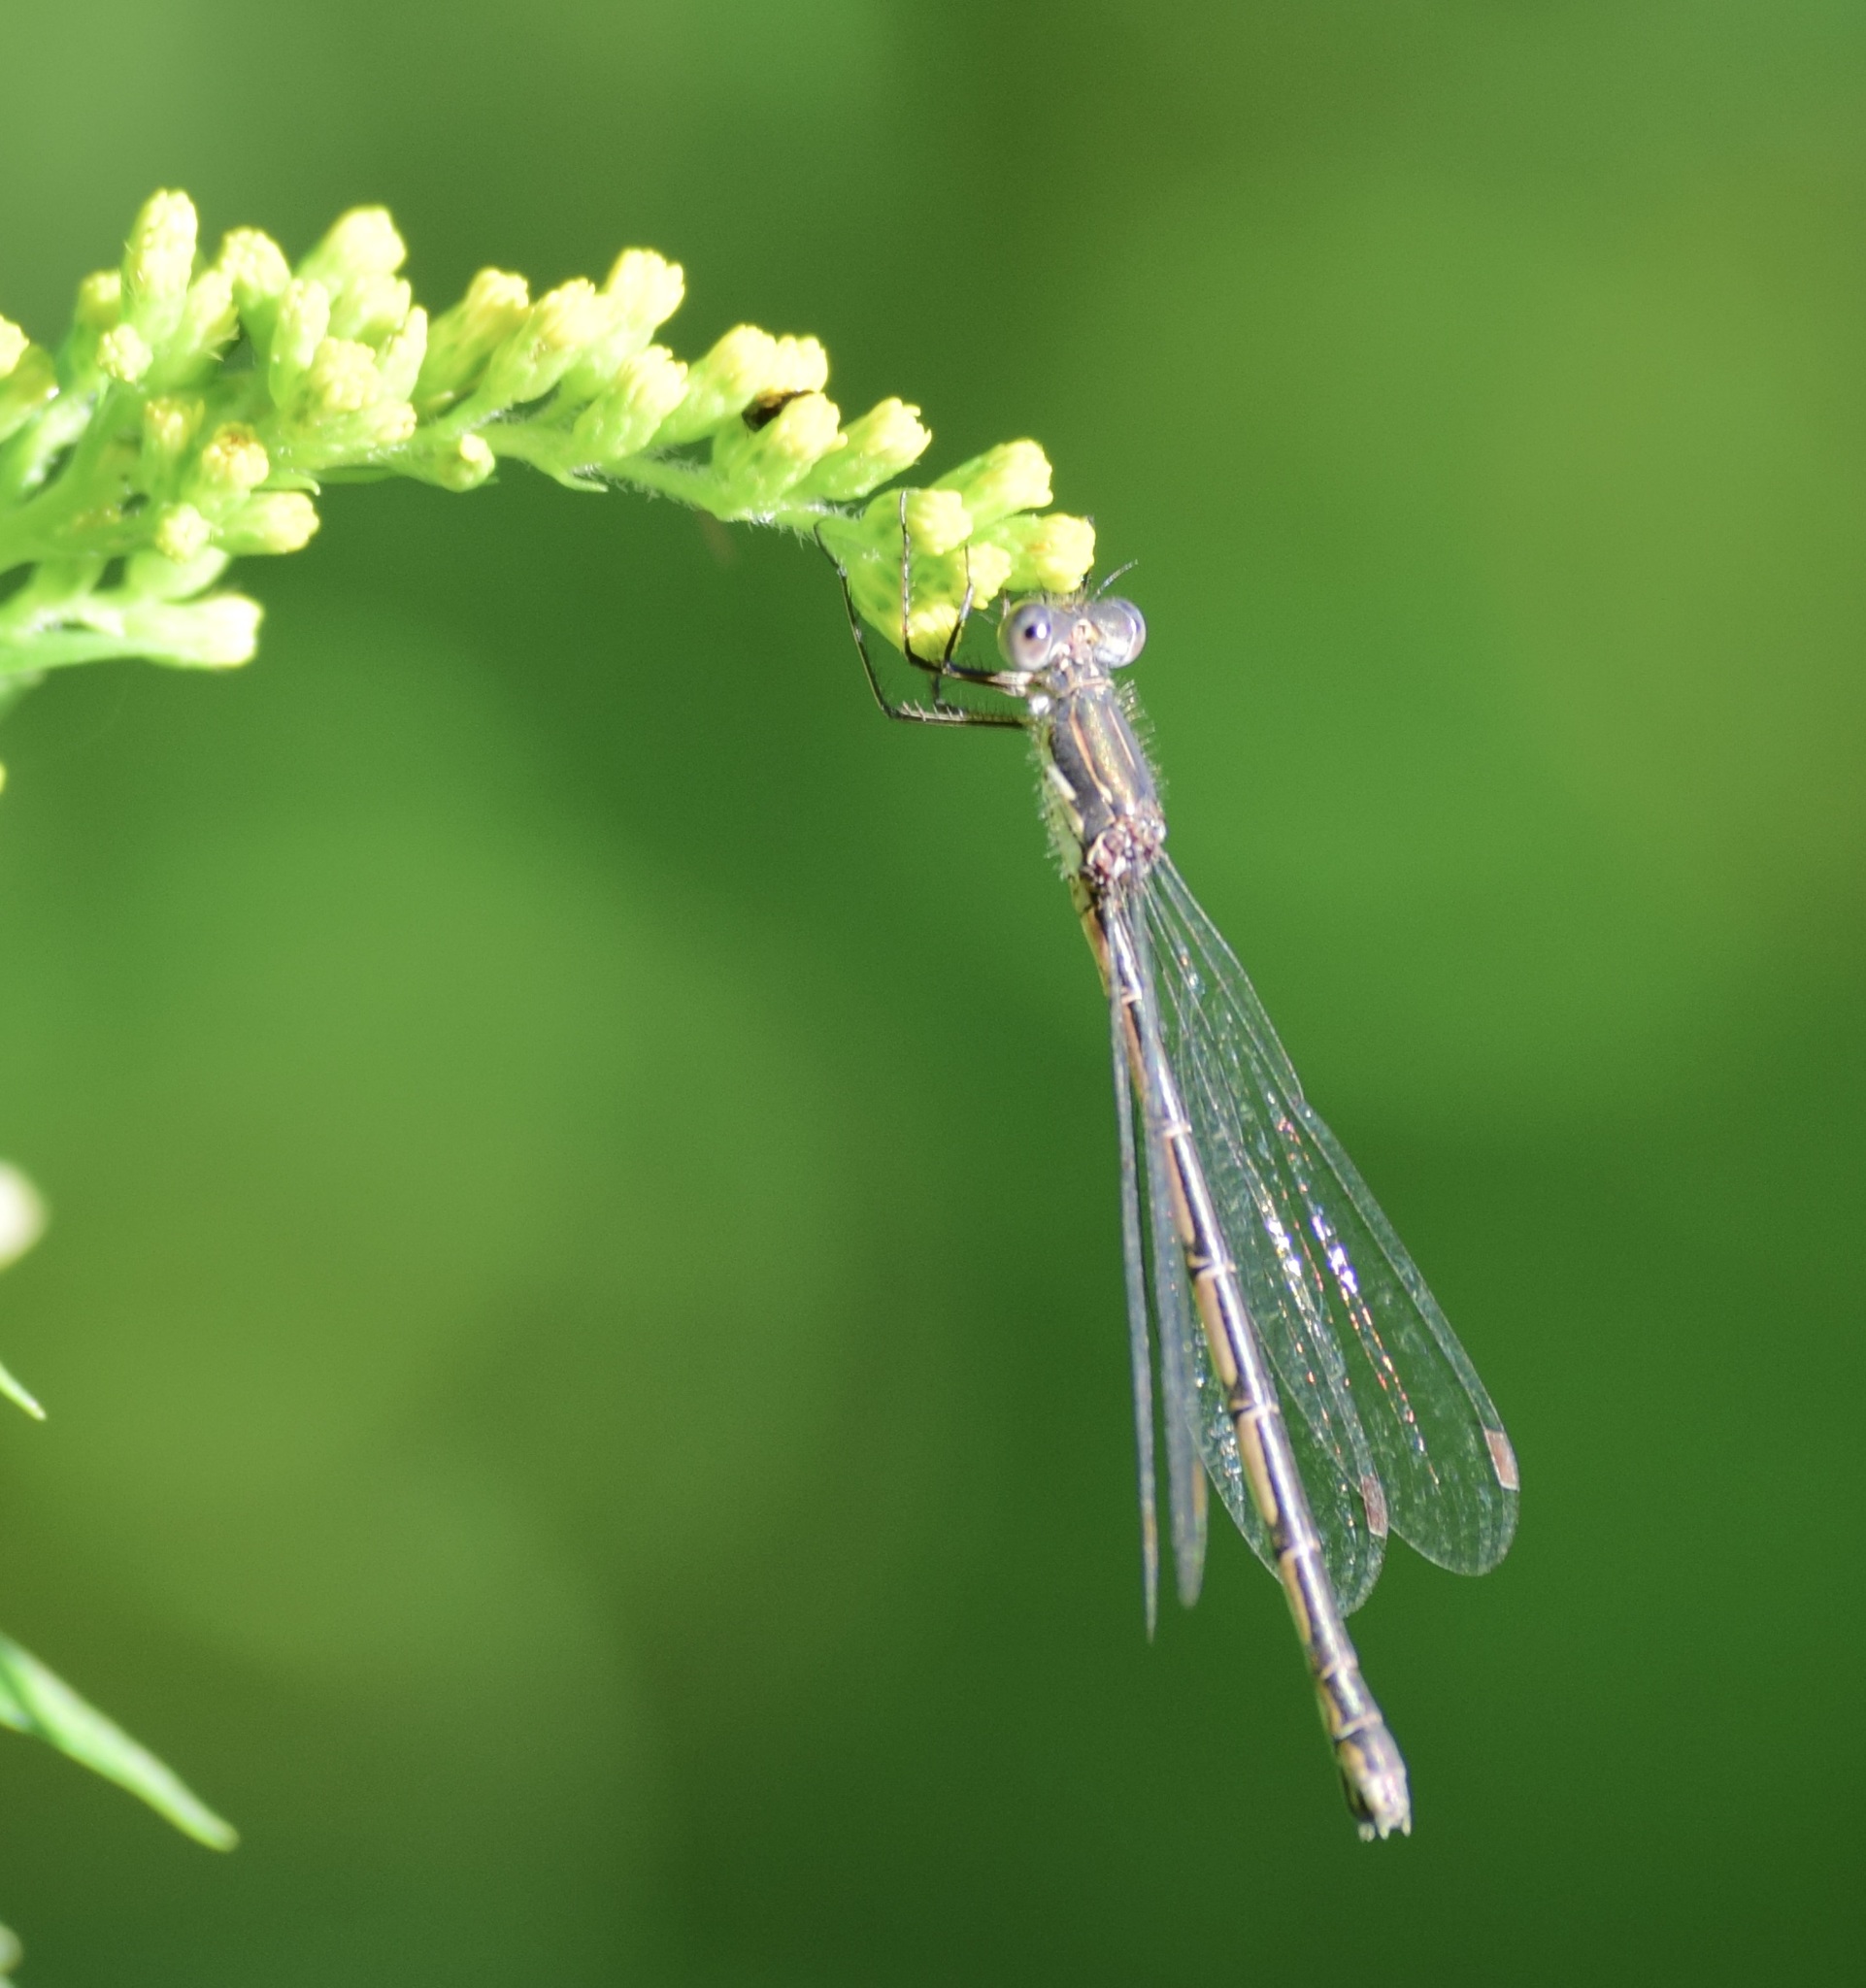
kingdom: Animalia
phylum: Arthropoda
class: Insecta
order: Odonata
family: Lestidae
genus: Lestes
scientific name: Lestes congener
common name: Spotted spreadwing
